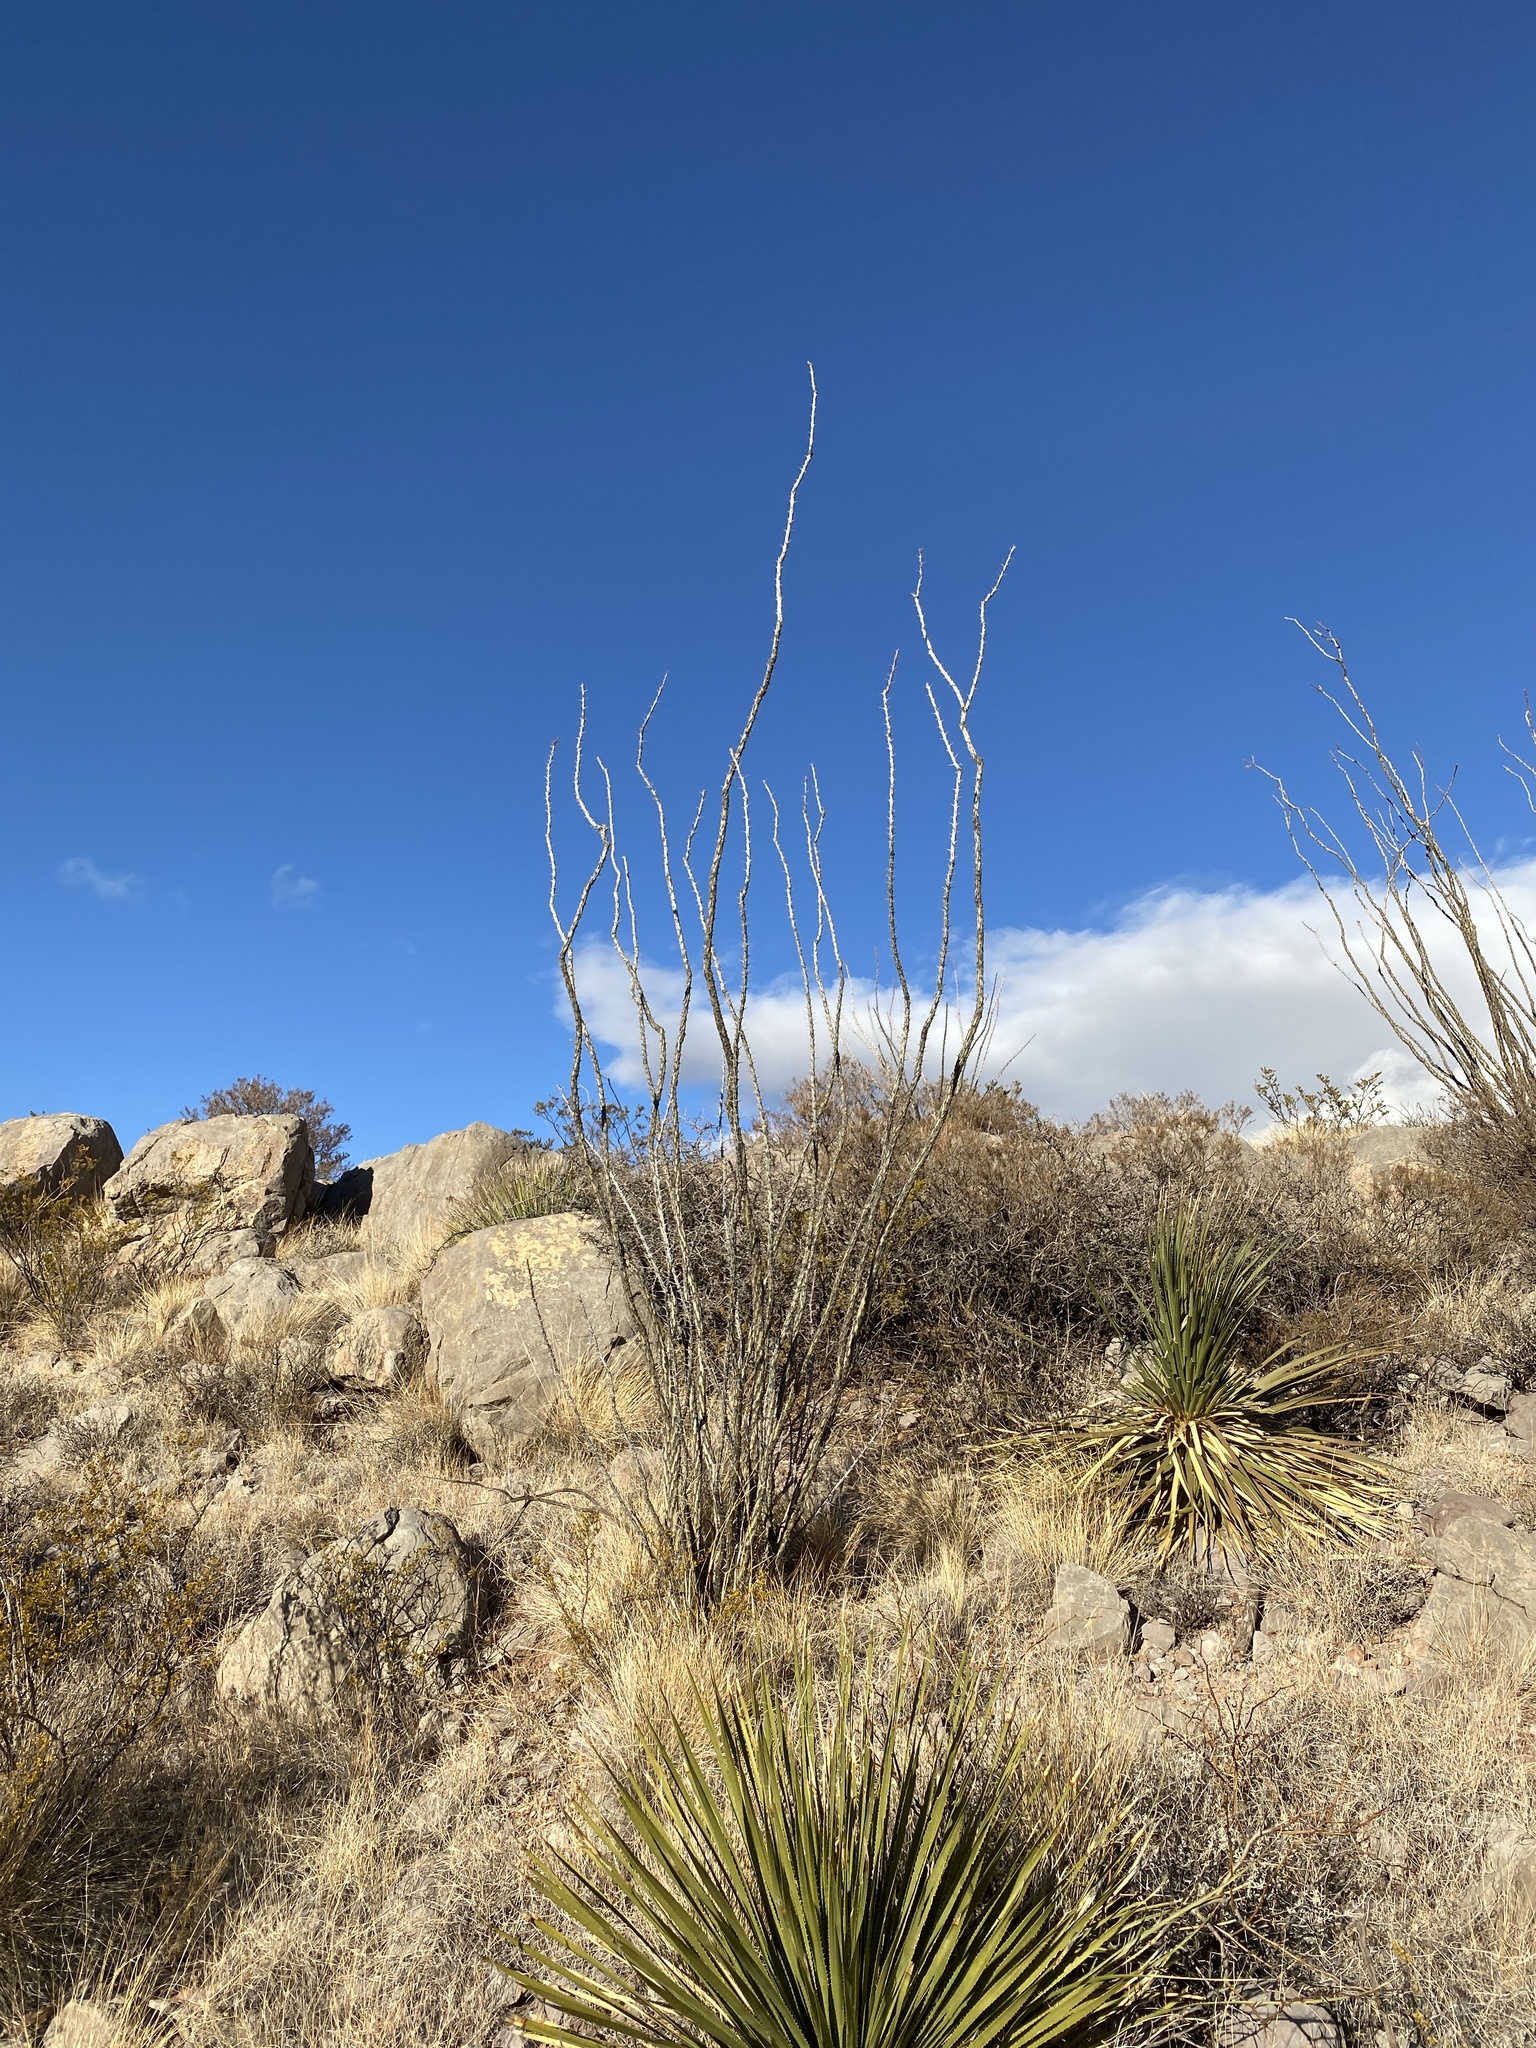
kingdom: Plantae
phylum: Tracheophyta
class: Magnoliopsida
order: Ericales
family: Fouquieriaceae
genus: Fouquieria
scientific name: Fouquieria splendens
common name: Vine-cactus
